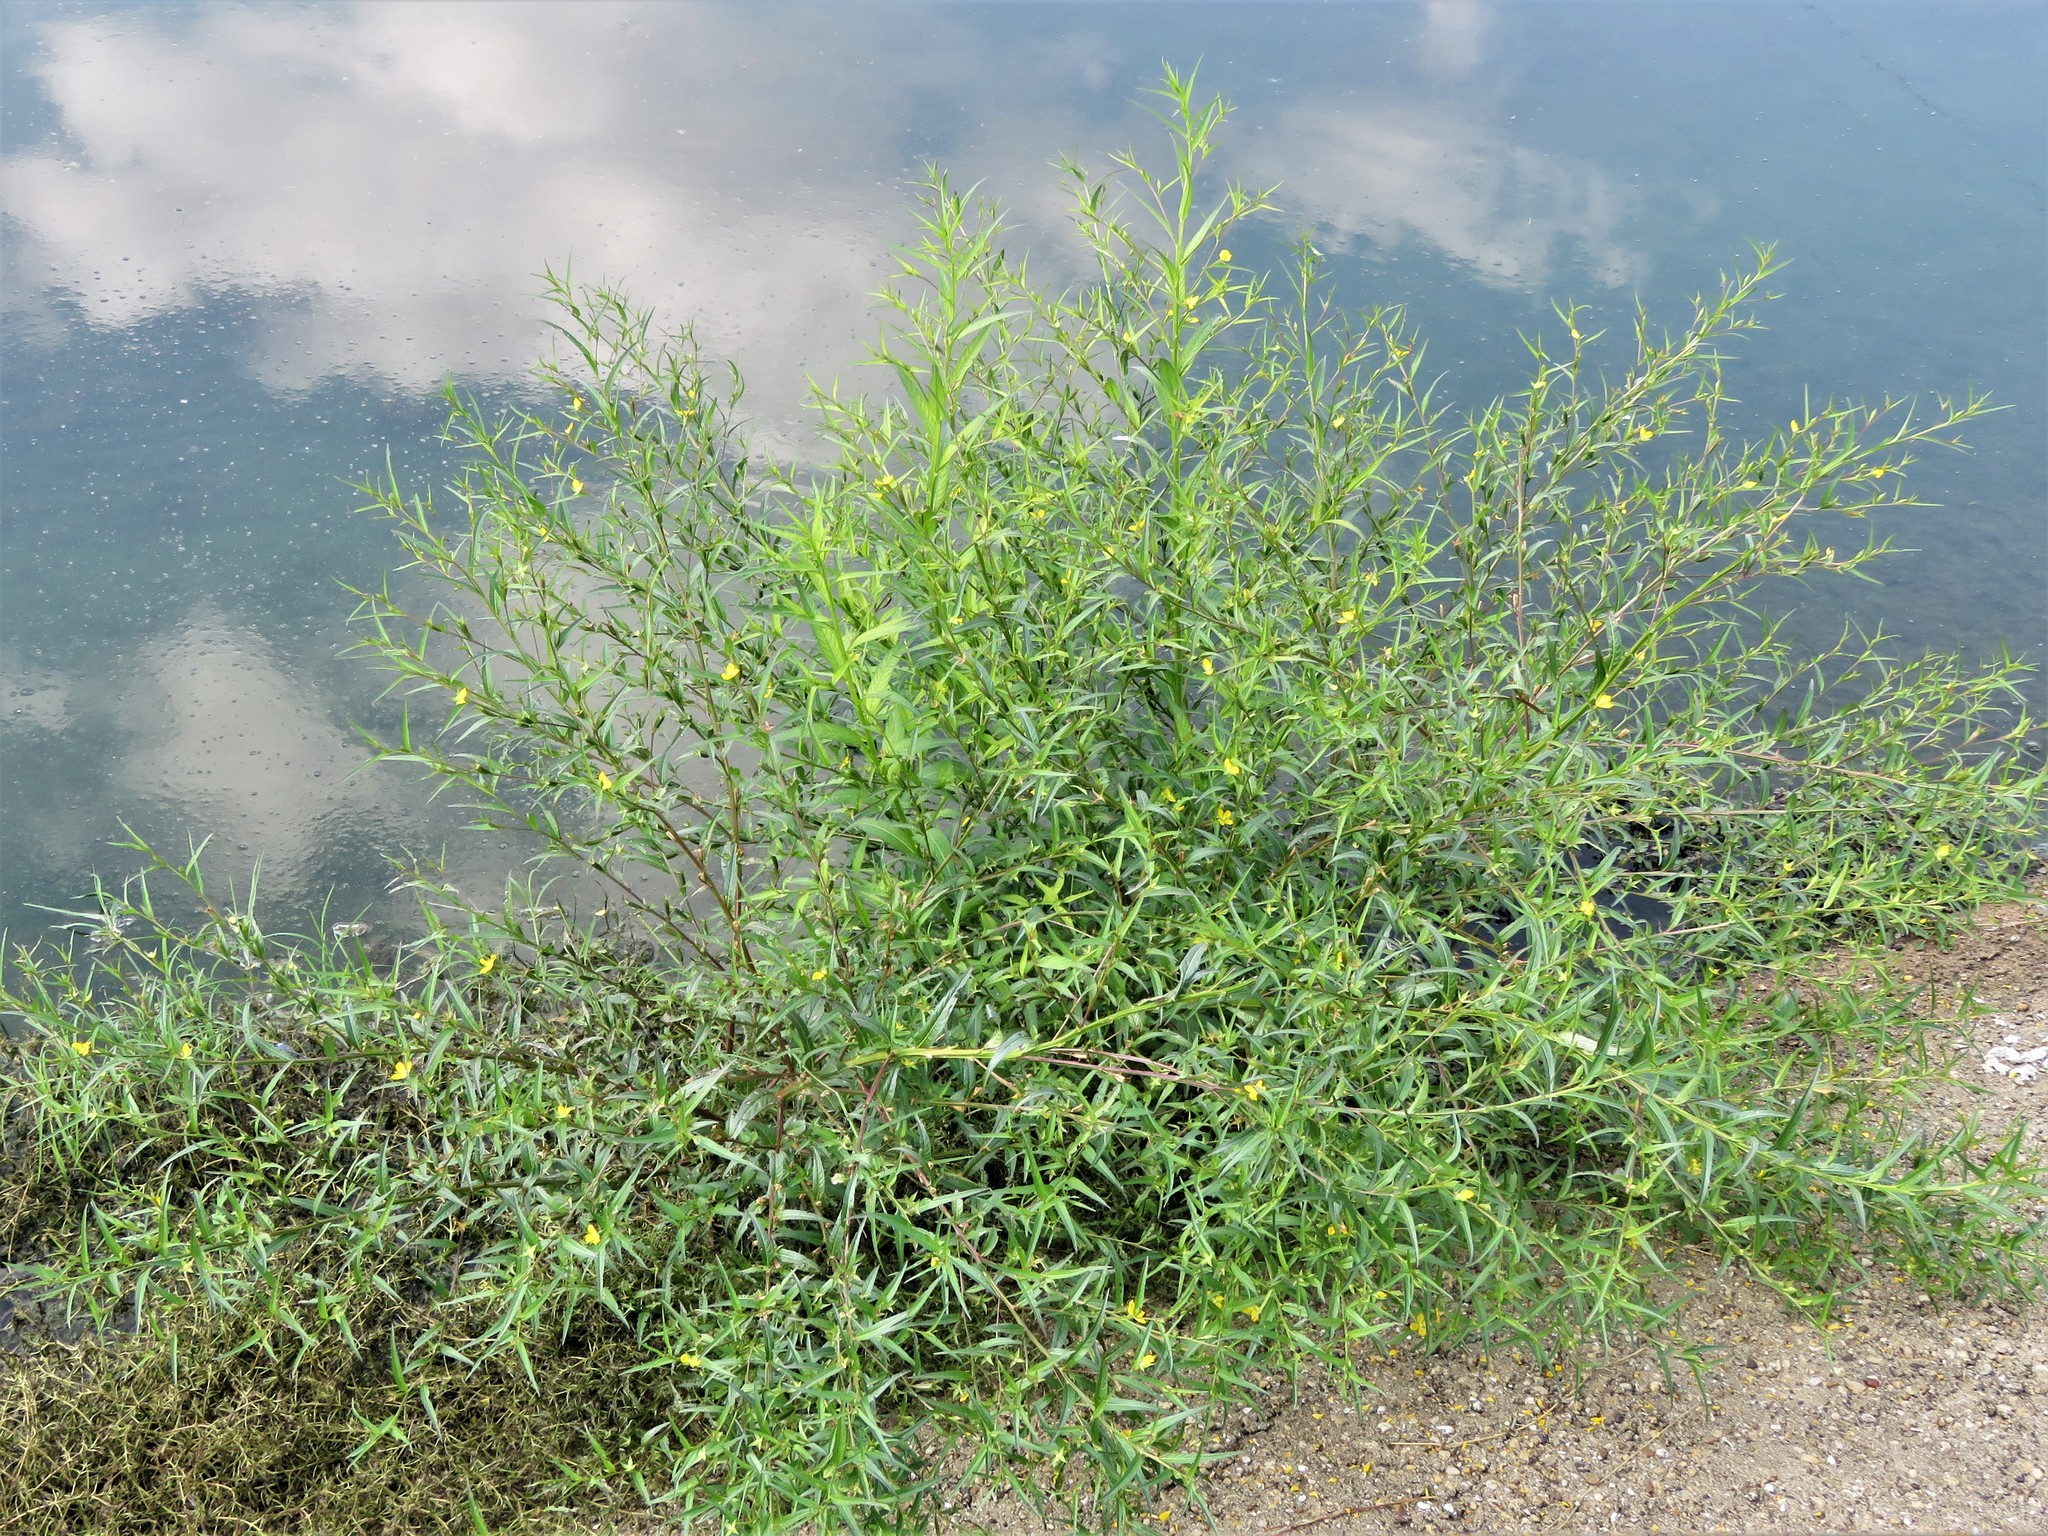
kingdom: Plantae
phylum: Tracheophyta
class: Magnoliopsida
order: Myrtales
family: Onagraceae
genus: Ludwigia
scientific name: Ludwigia decurrens
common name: Winged water-primrose
